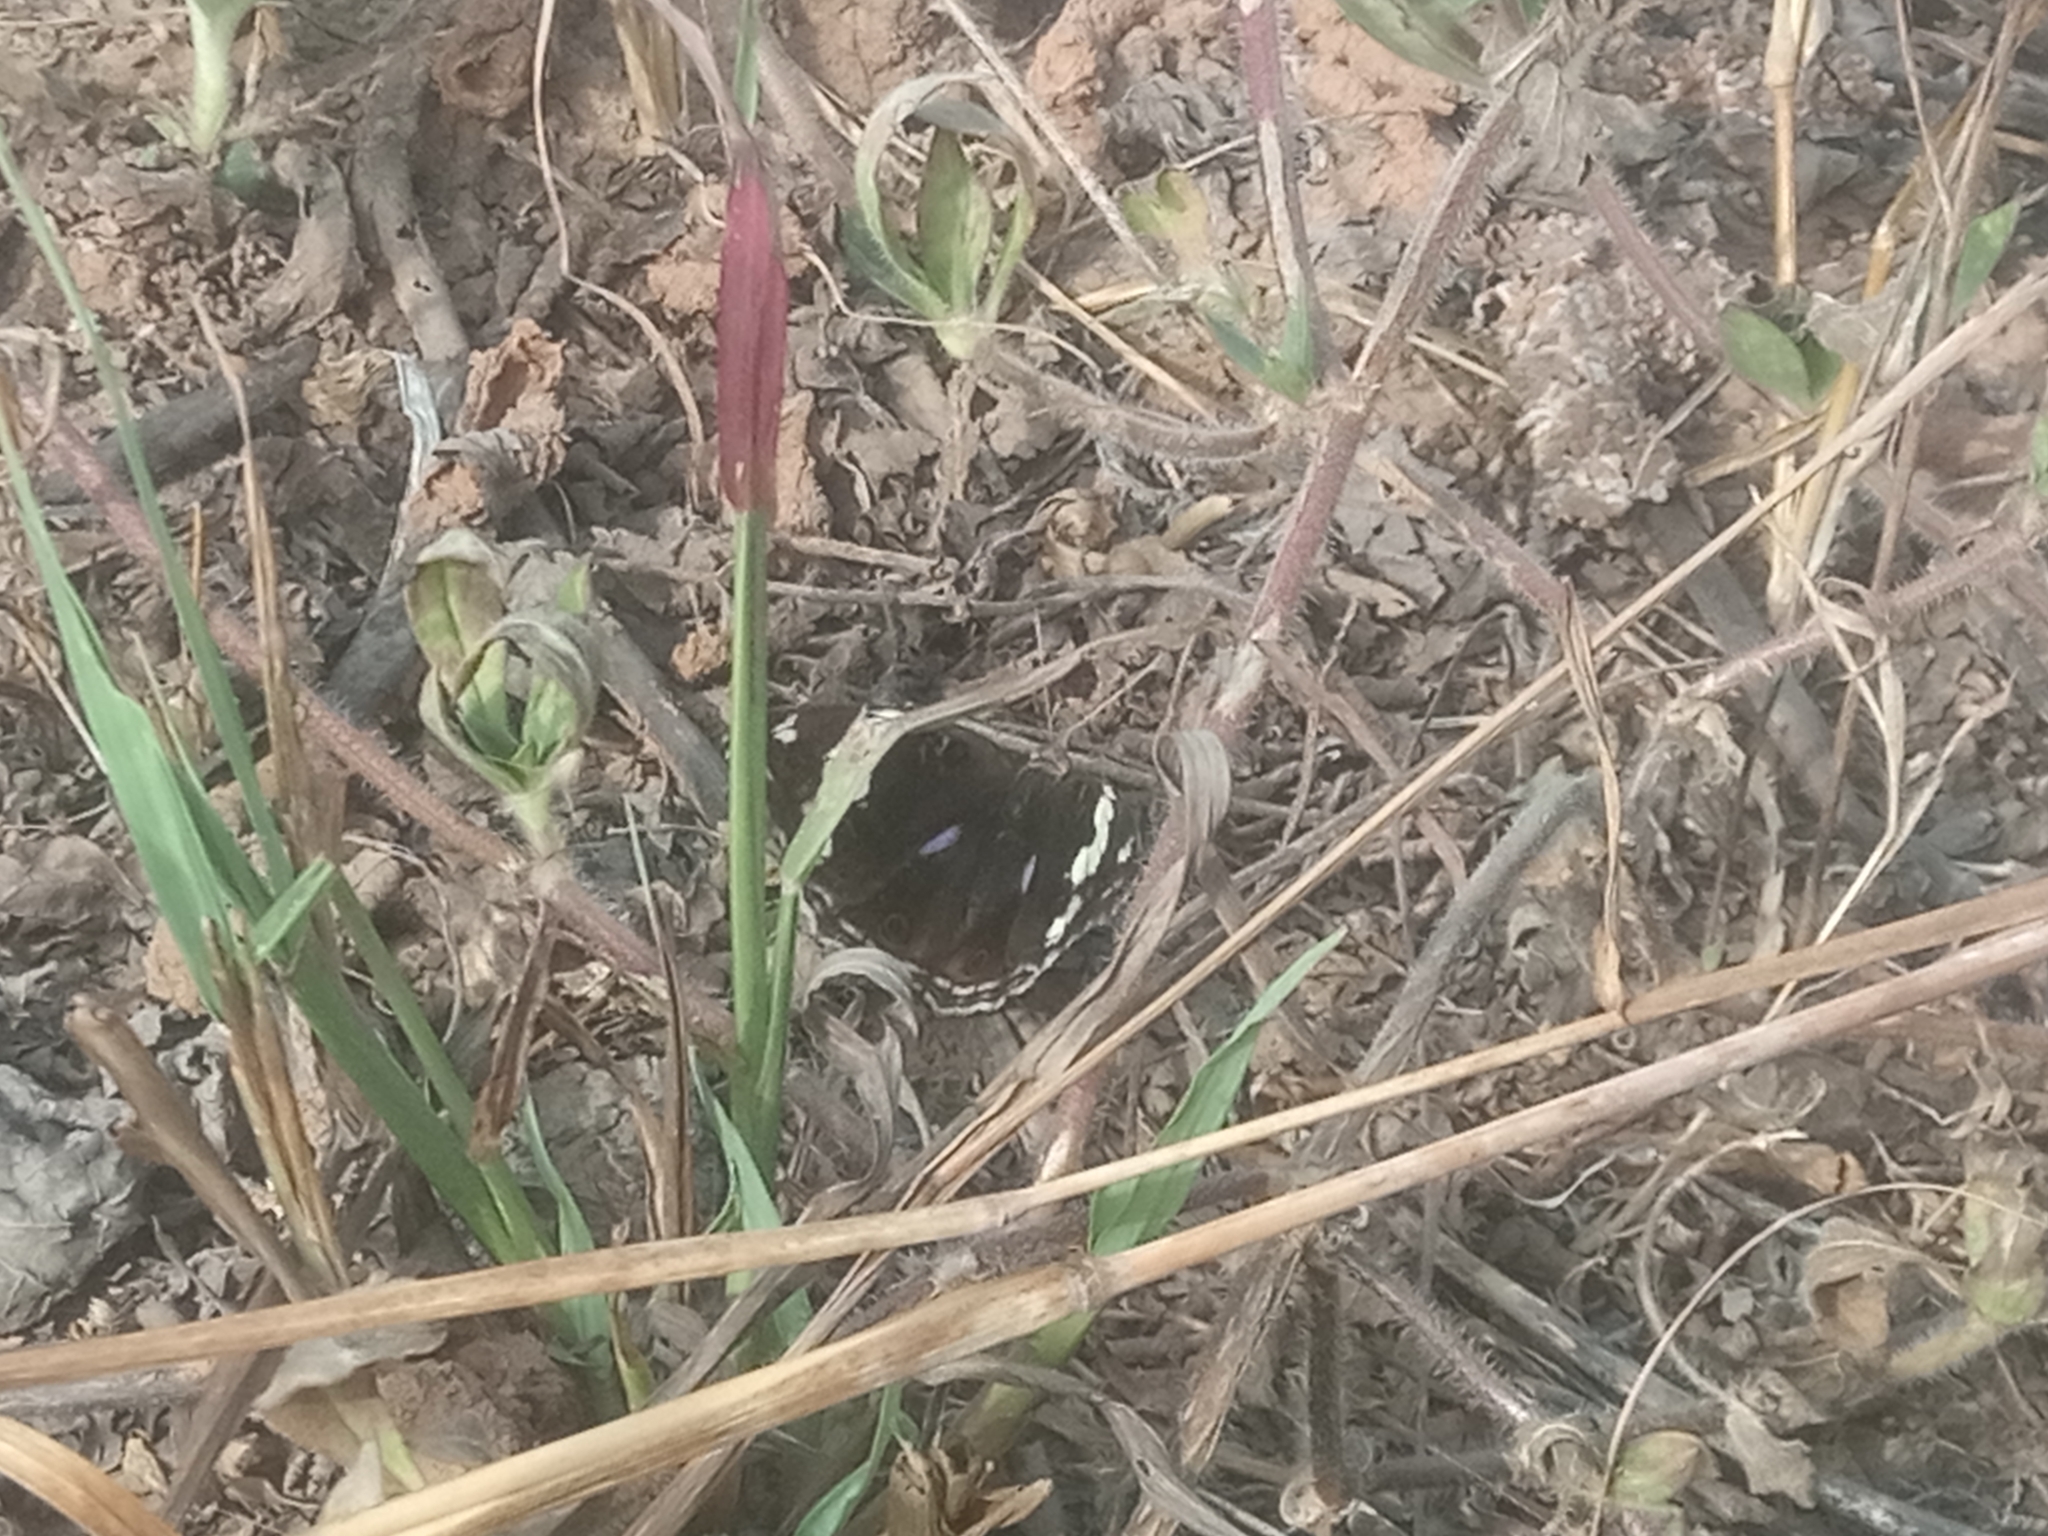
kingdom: Animalia
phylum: Arthropoda
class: Insecta
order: Lepidoptera
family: Nymphalidae
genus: Junonia
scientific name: Junonia oenone
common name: Dark blue pansy
